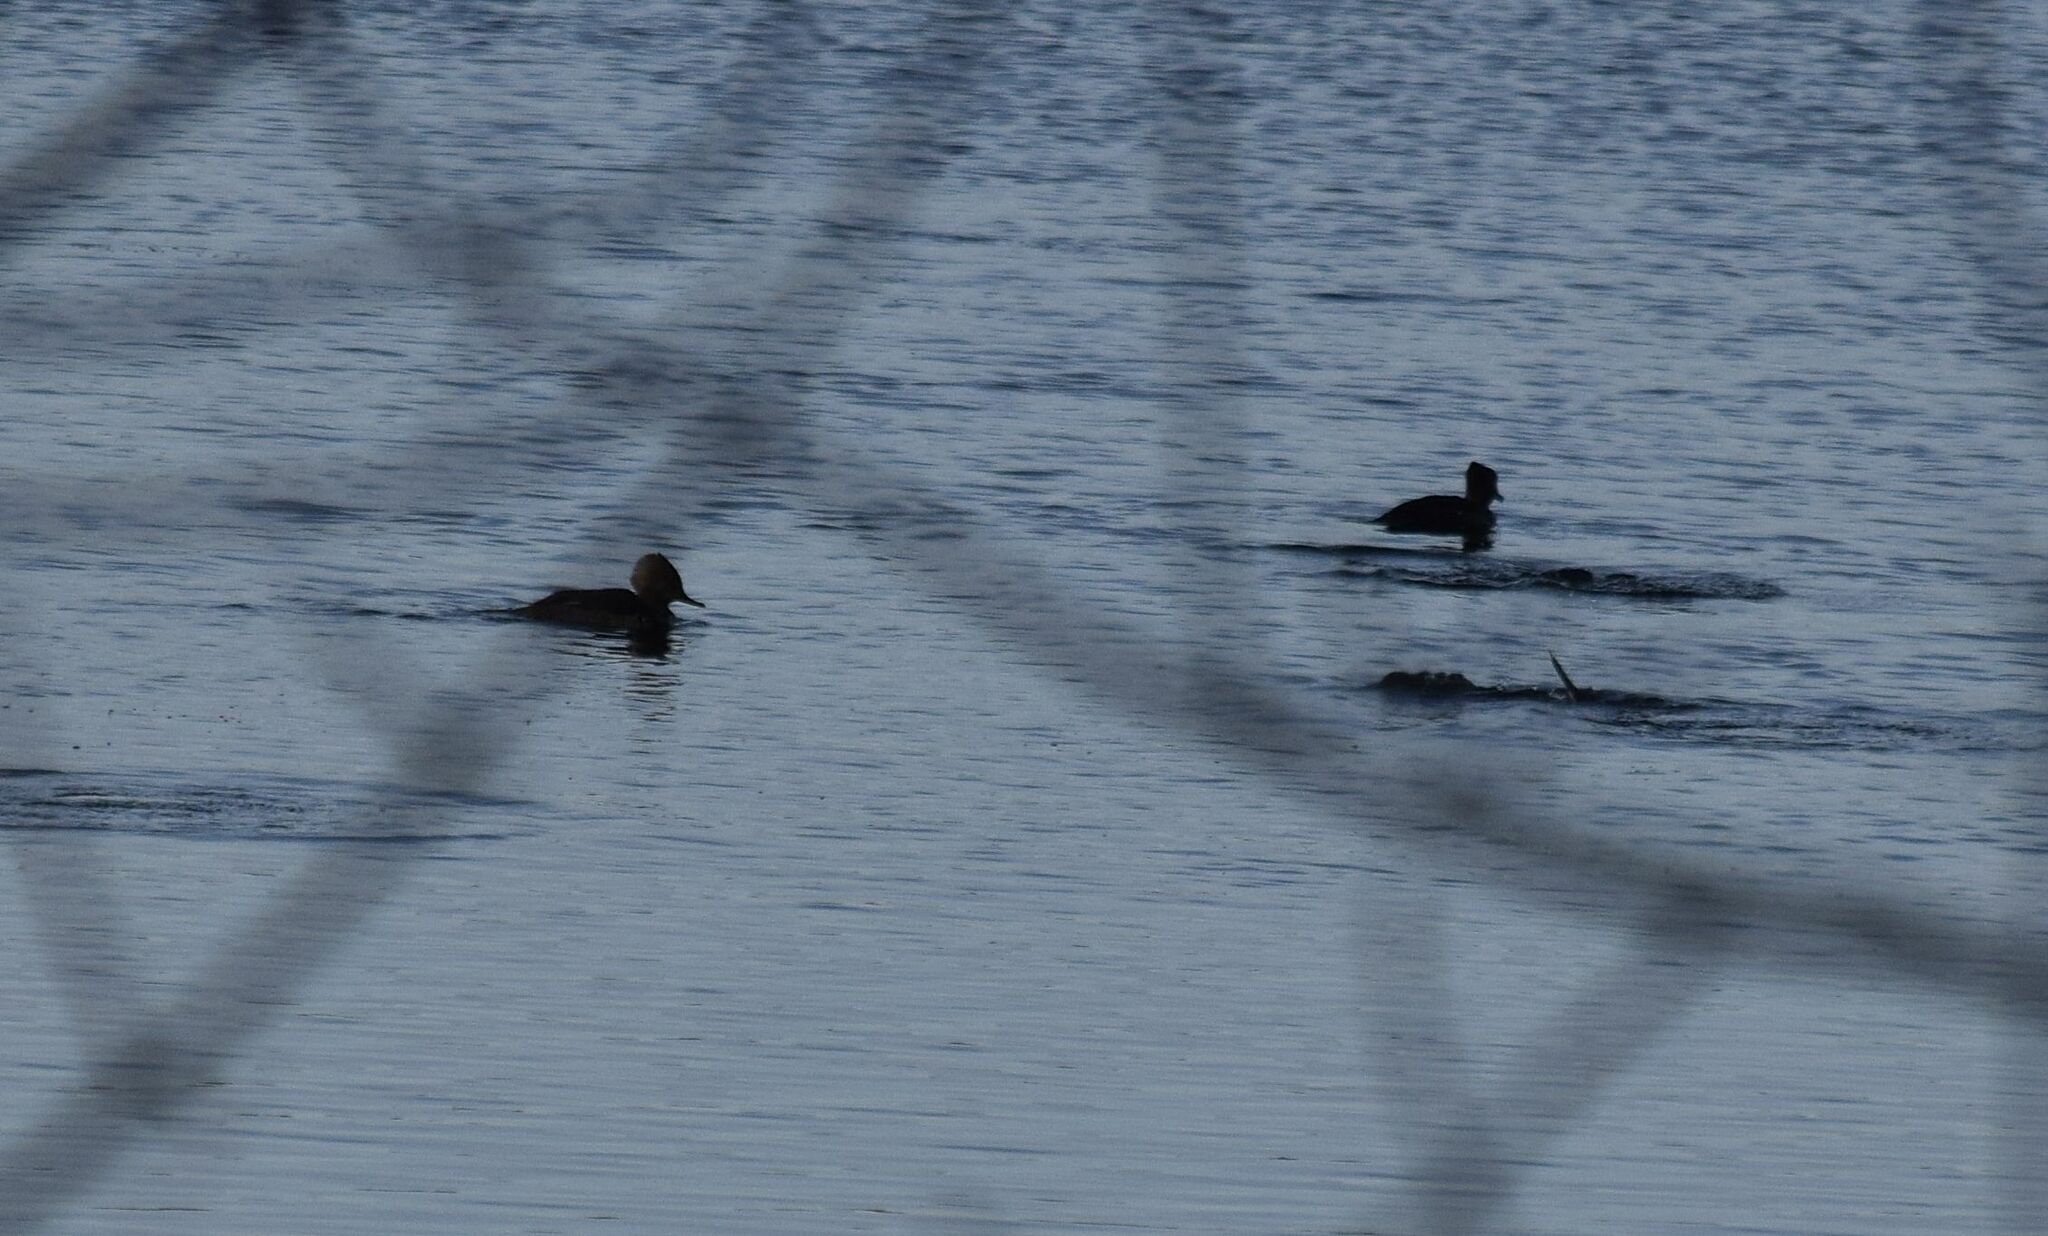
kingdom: Animalia
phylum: Chordata
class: Aves
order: Anseriformes
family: Anatidae
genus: Lophodytes
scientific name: Lophodytes cucullatus
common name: Hooded merganser
